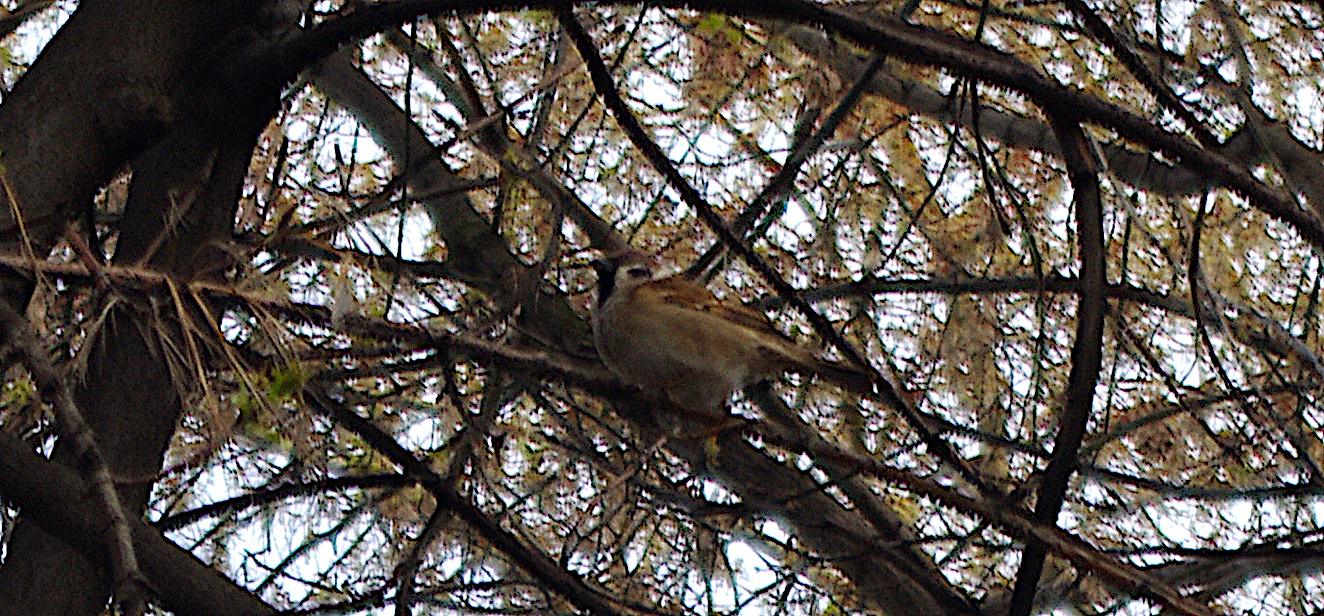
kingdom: Animalia
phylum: Chordata
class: Aves
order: Passeriformes
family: Passeridae
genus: Passer
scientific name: Passer montanus
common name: Eurasian tree sparrow
